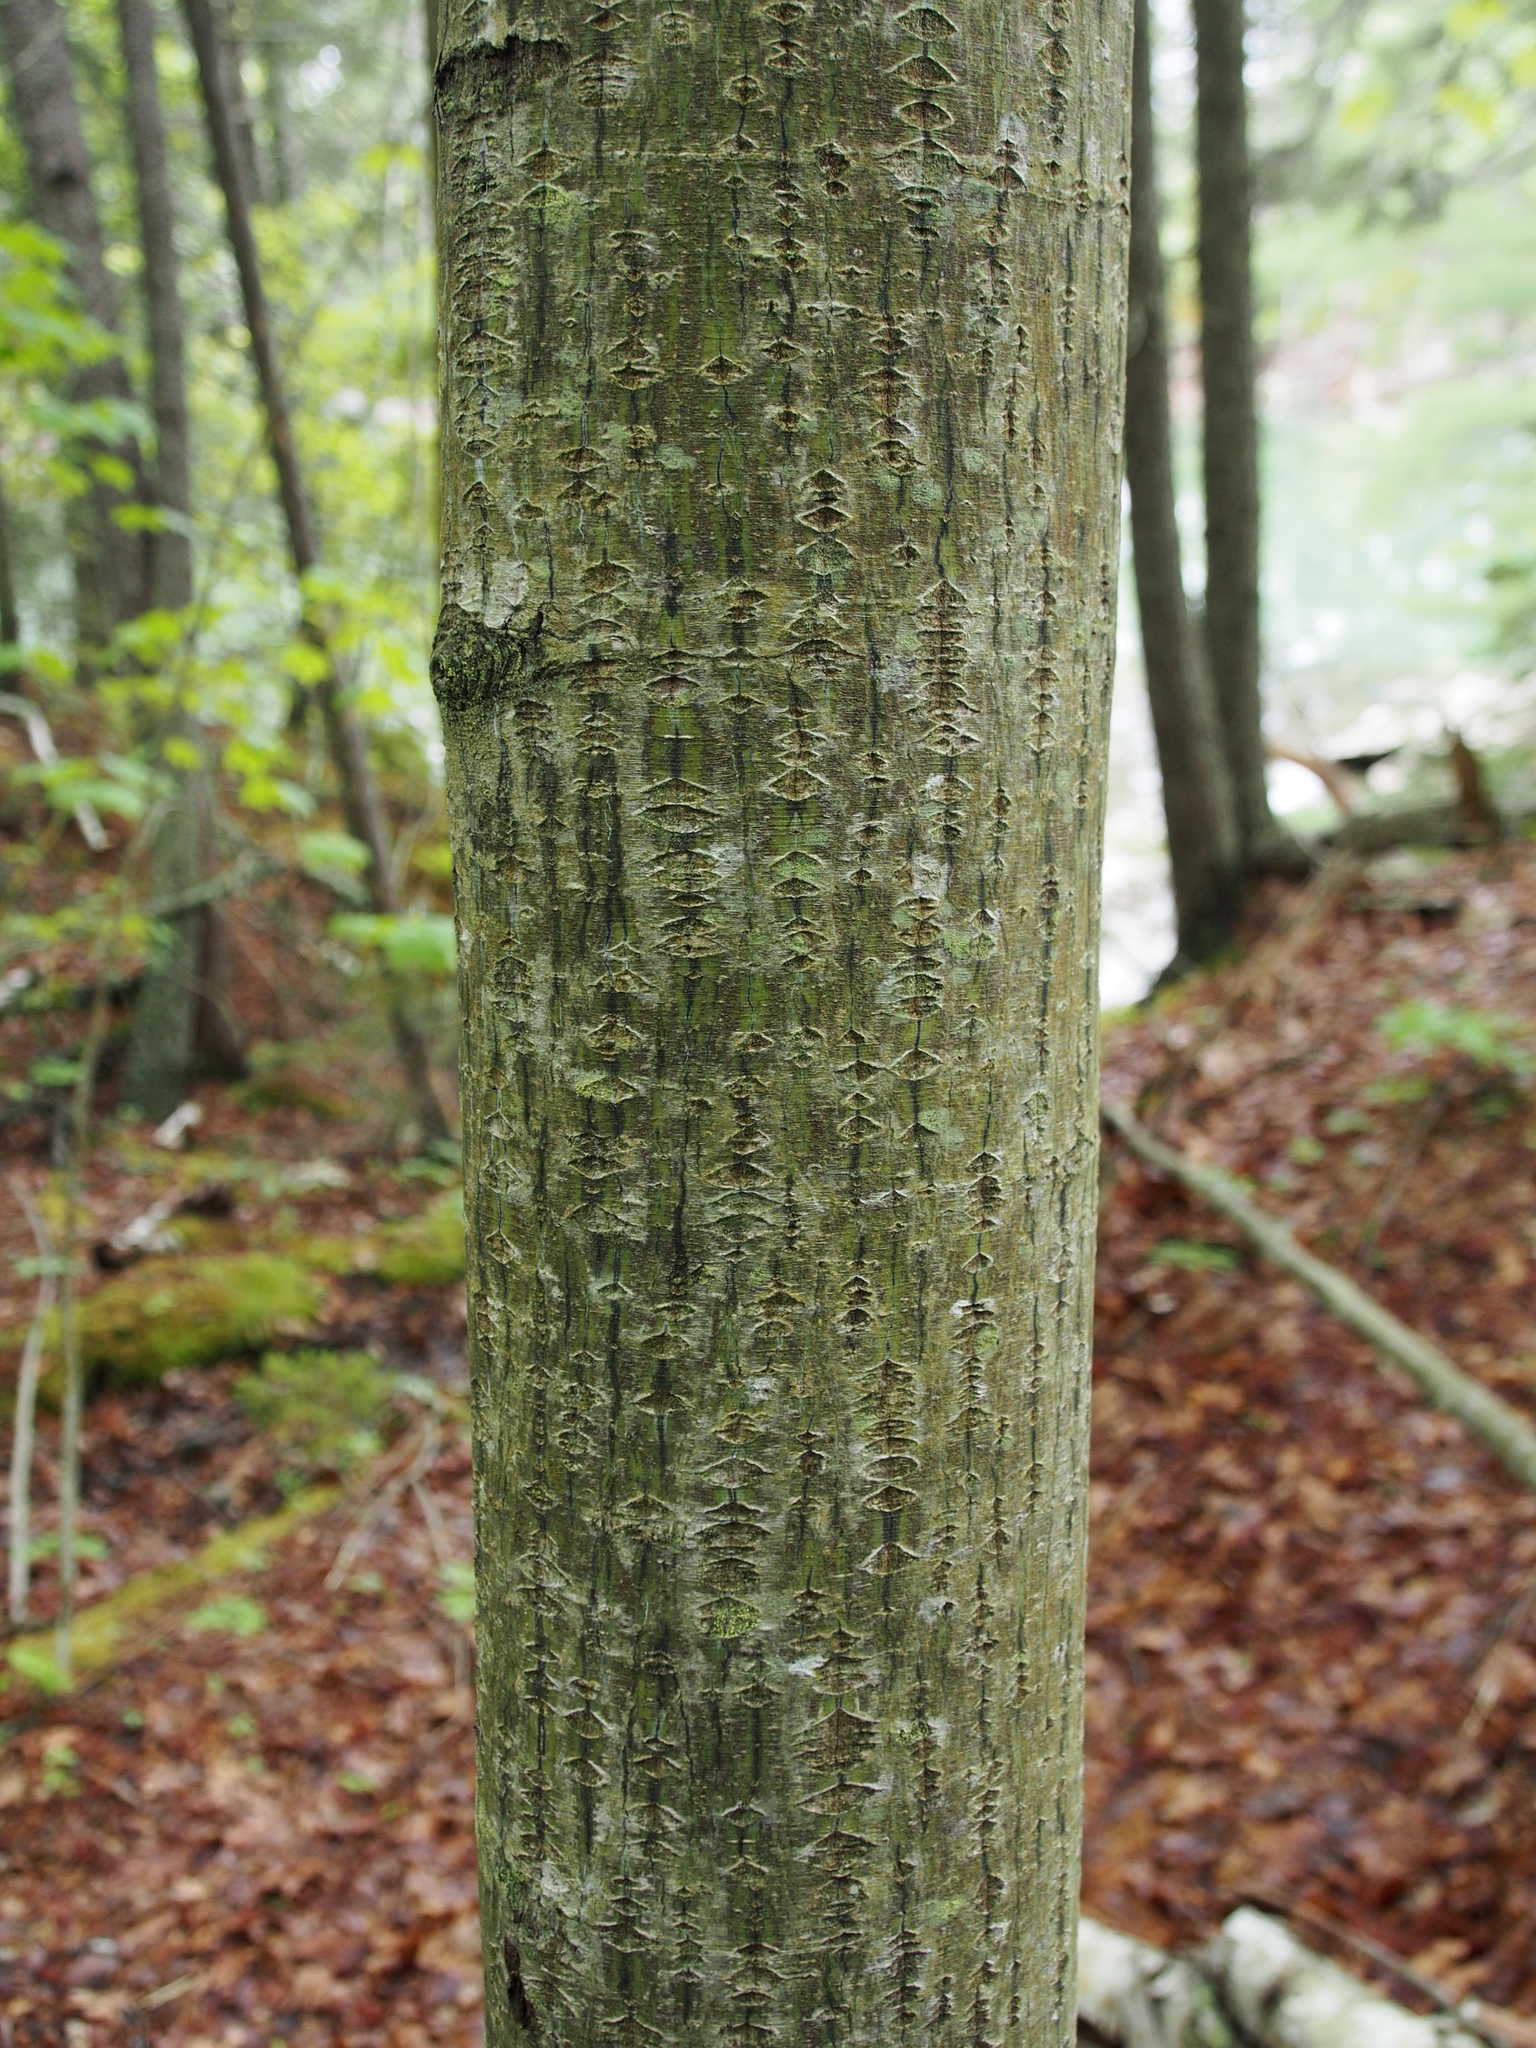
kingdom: Plantae
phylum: Tracheophyta
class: Magnoliopsida
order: Sapindales
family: Sapindaceae
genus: Acer
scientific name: Acer pensylvanicum
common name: Moosewood
